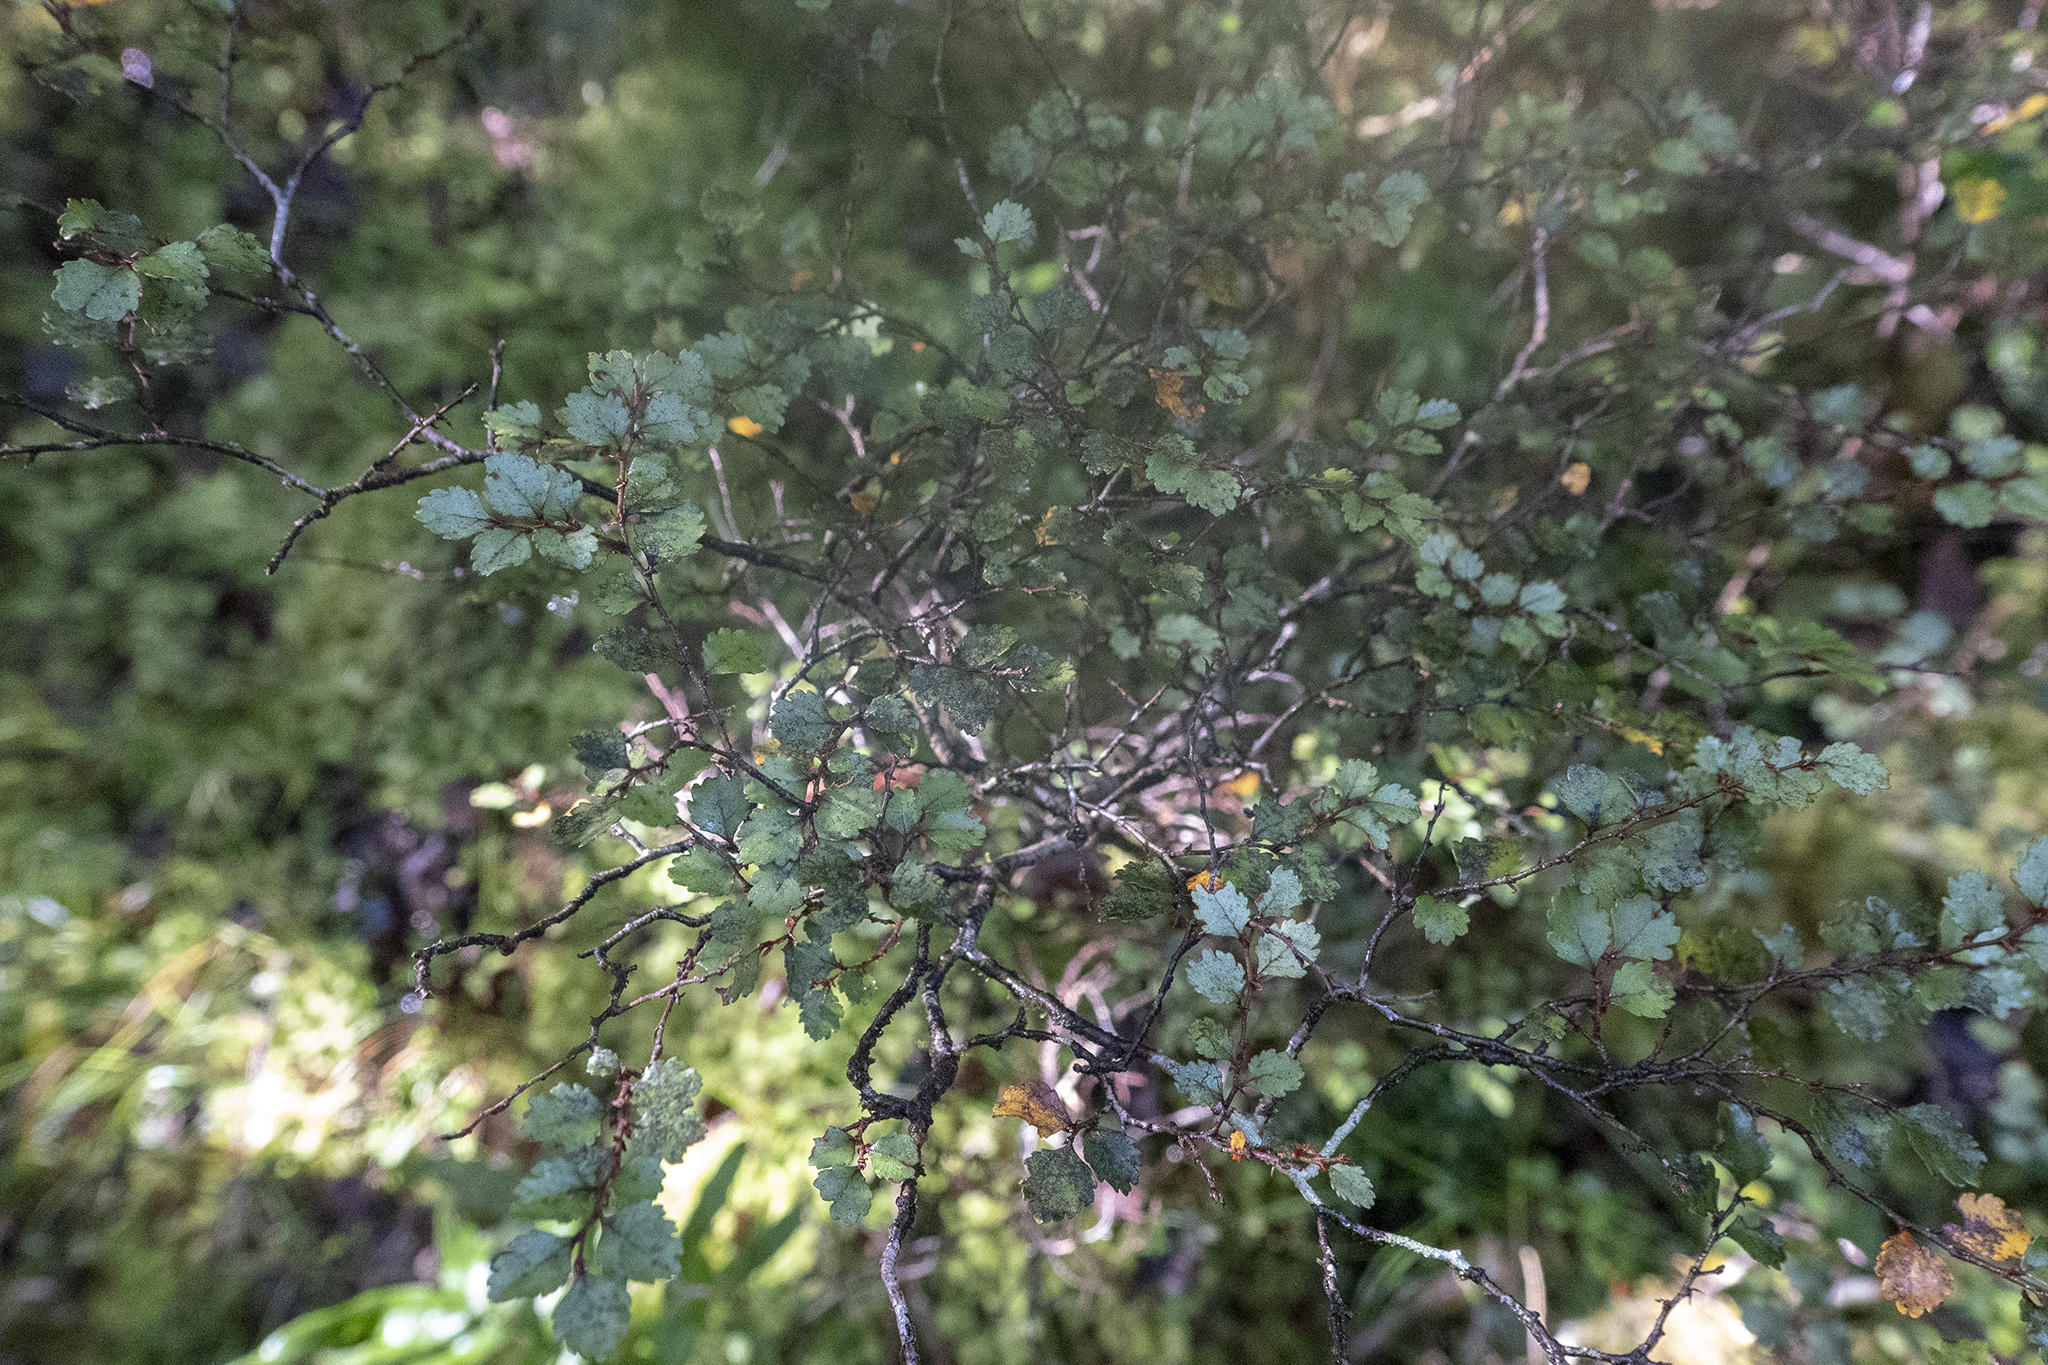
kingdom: Plantae
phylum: Tracheophyta
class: Magnoliopsida
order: Fagales
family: Nothofagaceae
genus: Nothofagus
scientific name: Nothofagus menziesii
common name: Silver beech
